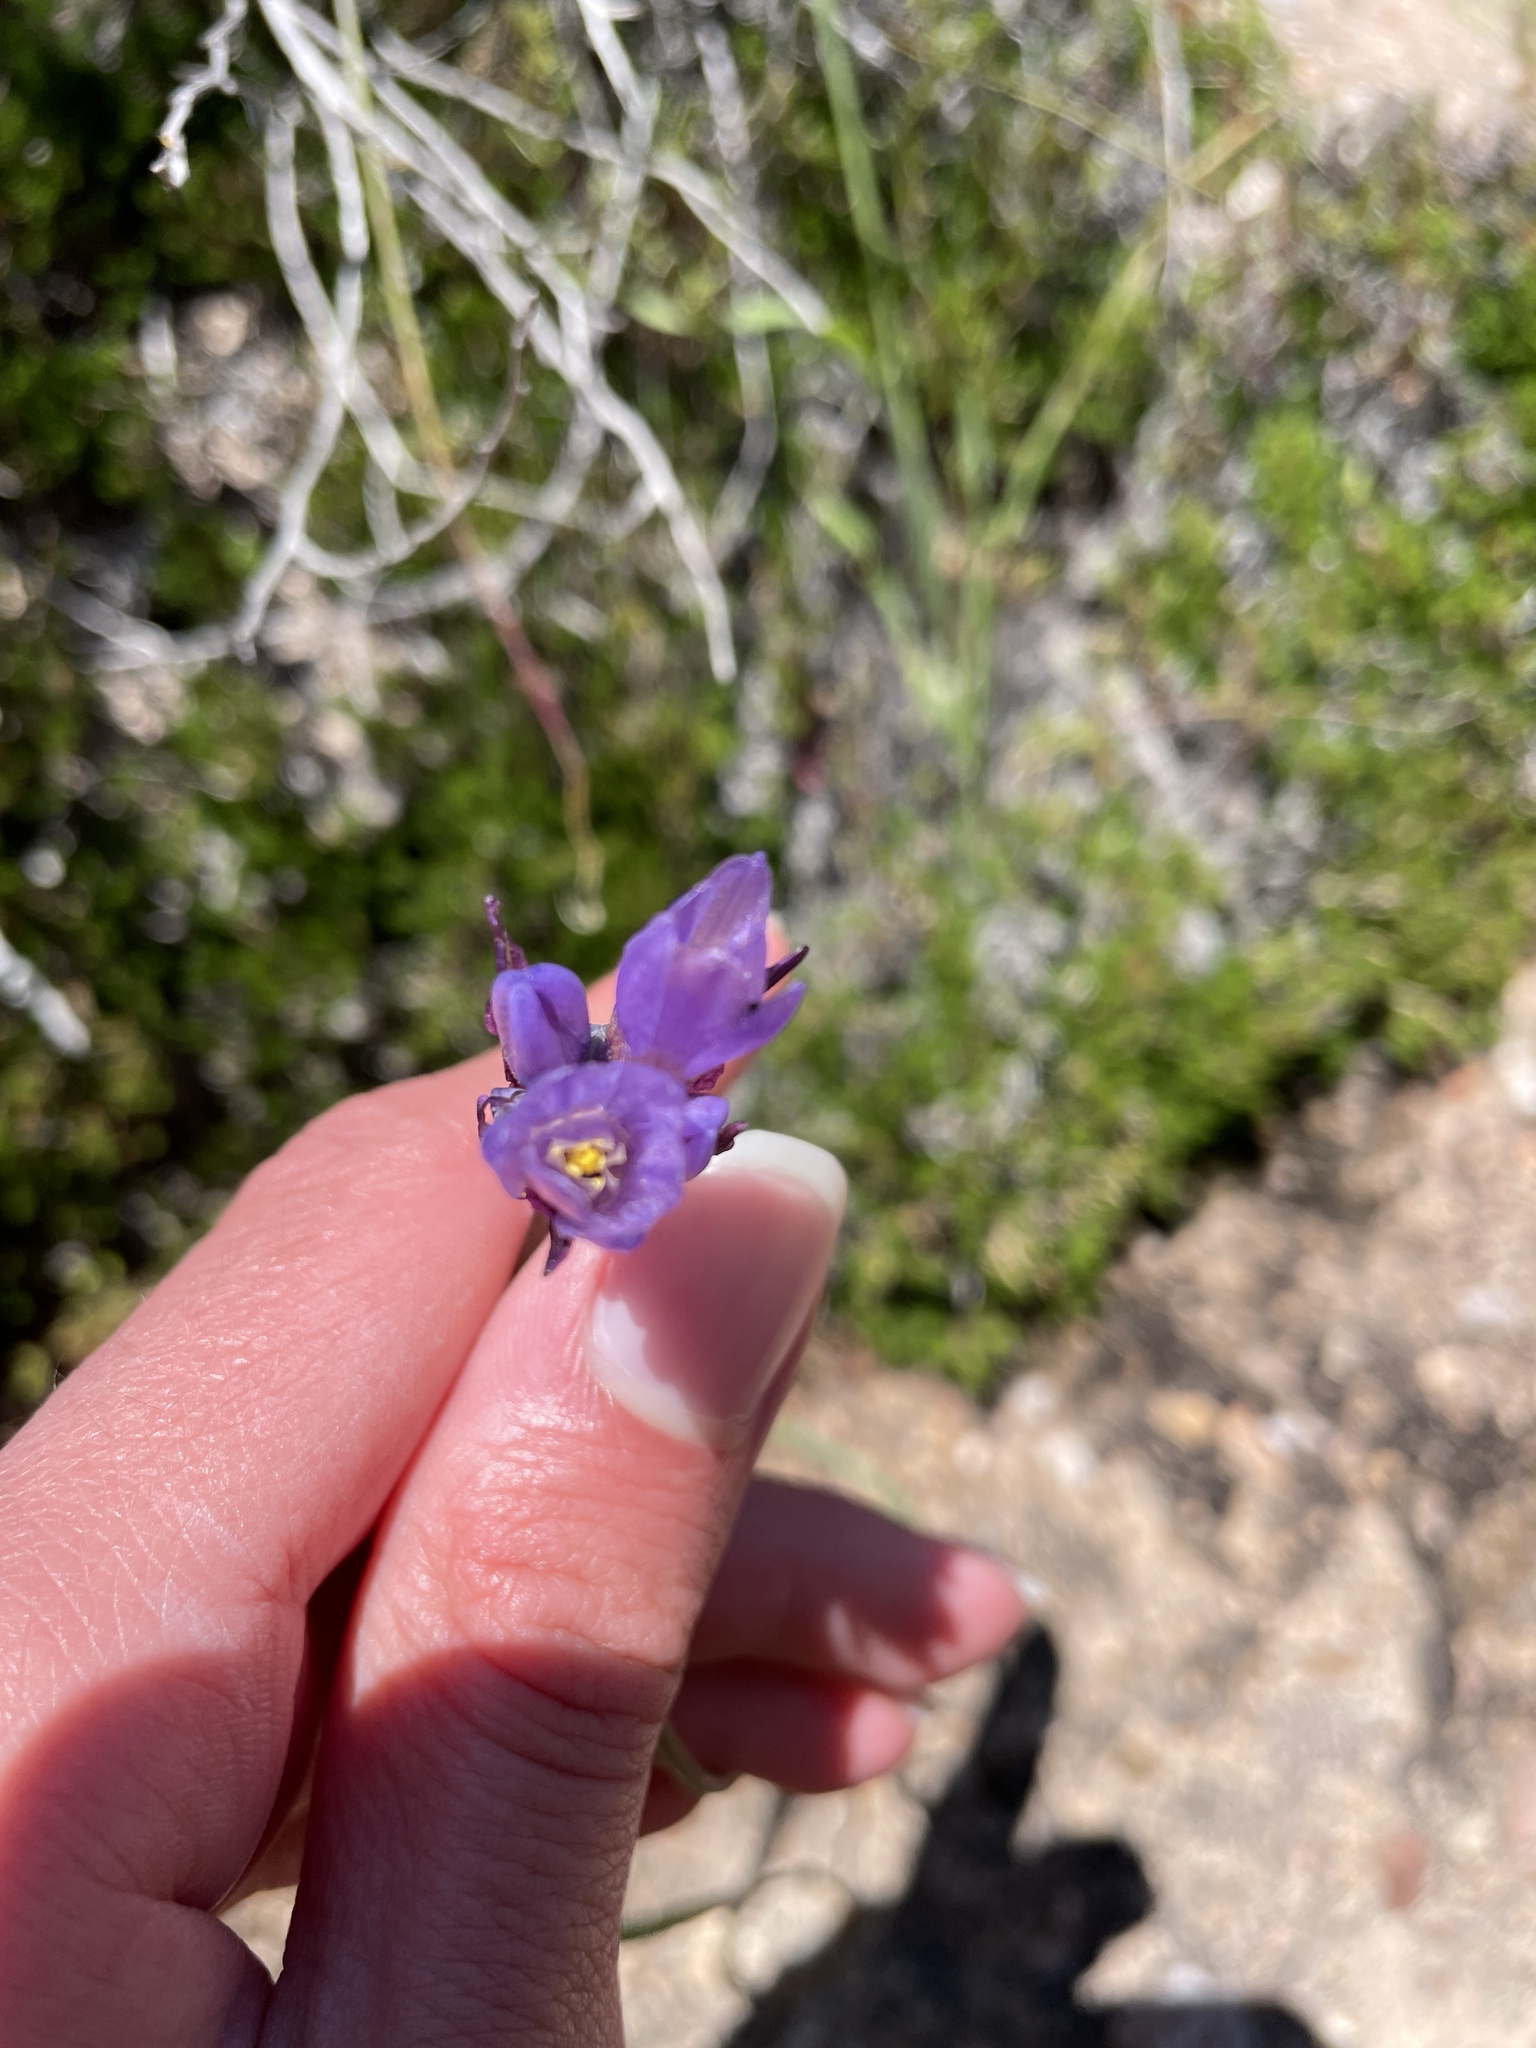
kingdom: Plantae
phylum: Tracheophyta
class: Liliopsida
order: Asparagales
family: Asparagaceae
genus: Dipterostemon
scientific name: Dipterostemon capitatus
